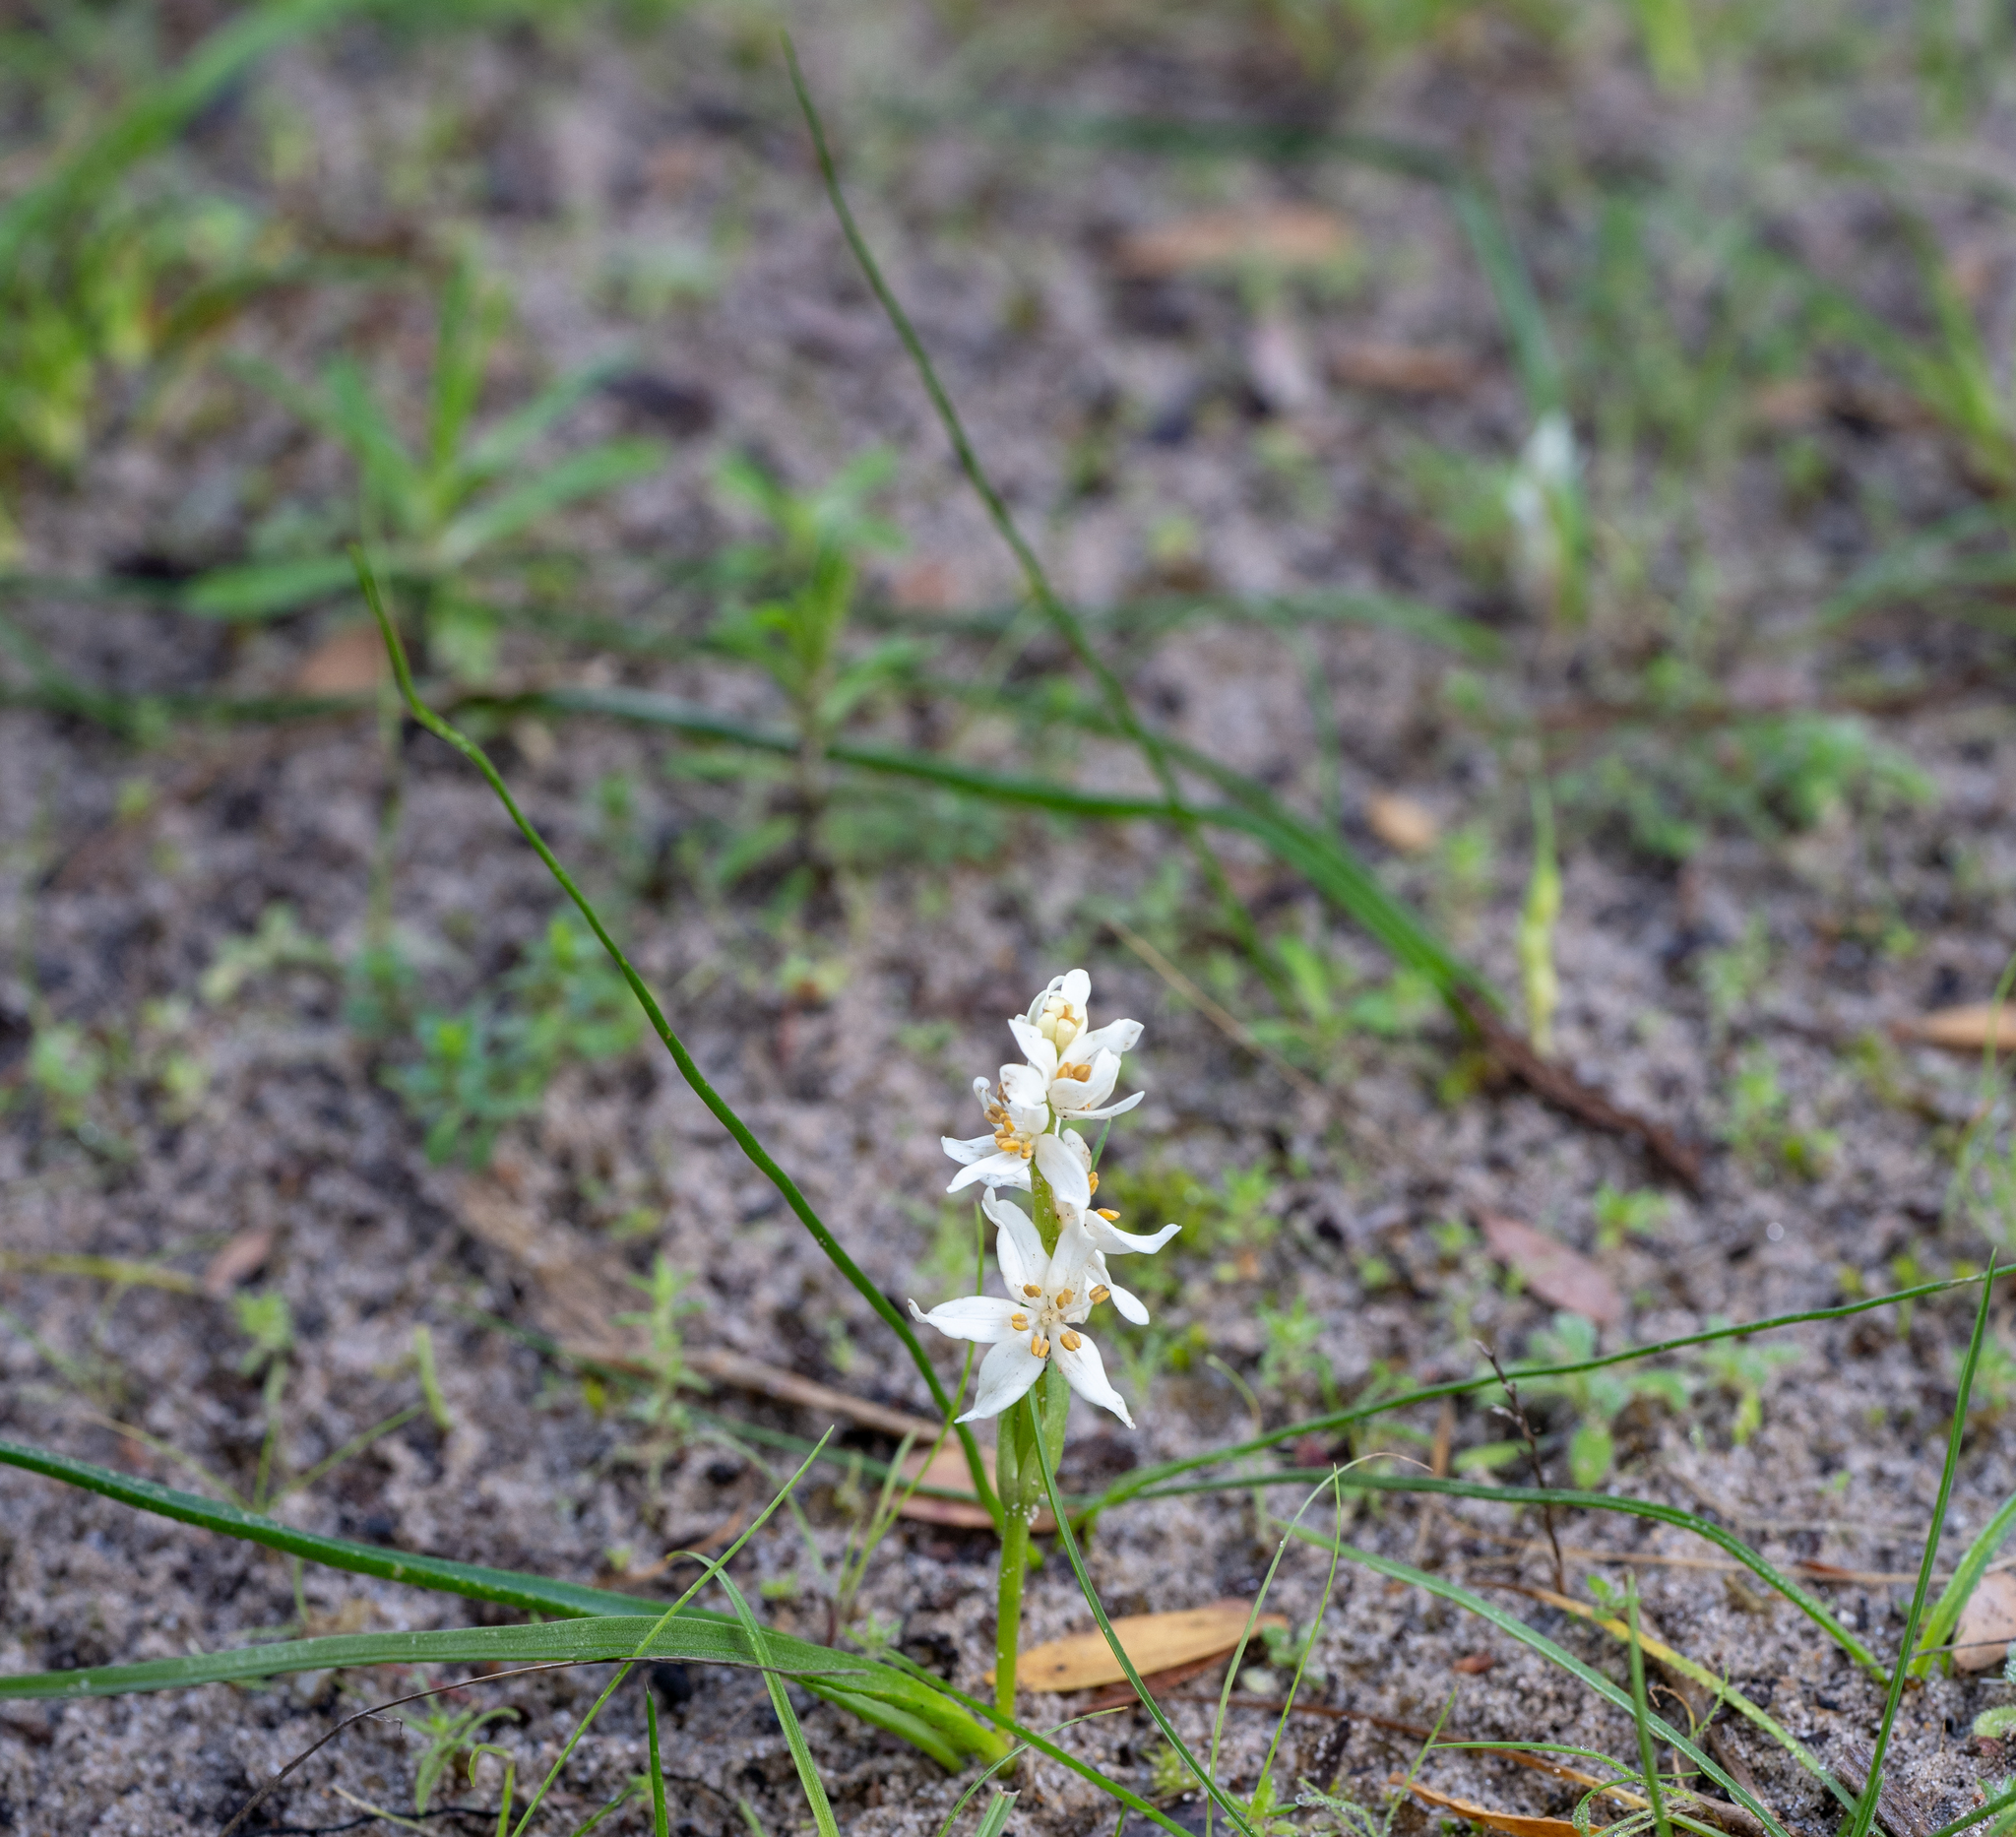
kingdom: Plantae
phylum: Tracheophyta
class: Liliopsida
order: Liliales
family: Colchicaceae
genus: Wurmbea
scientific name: Wurmbea latifolia
